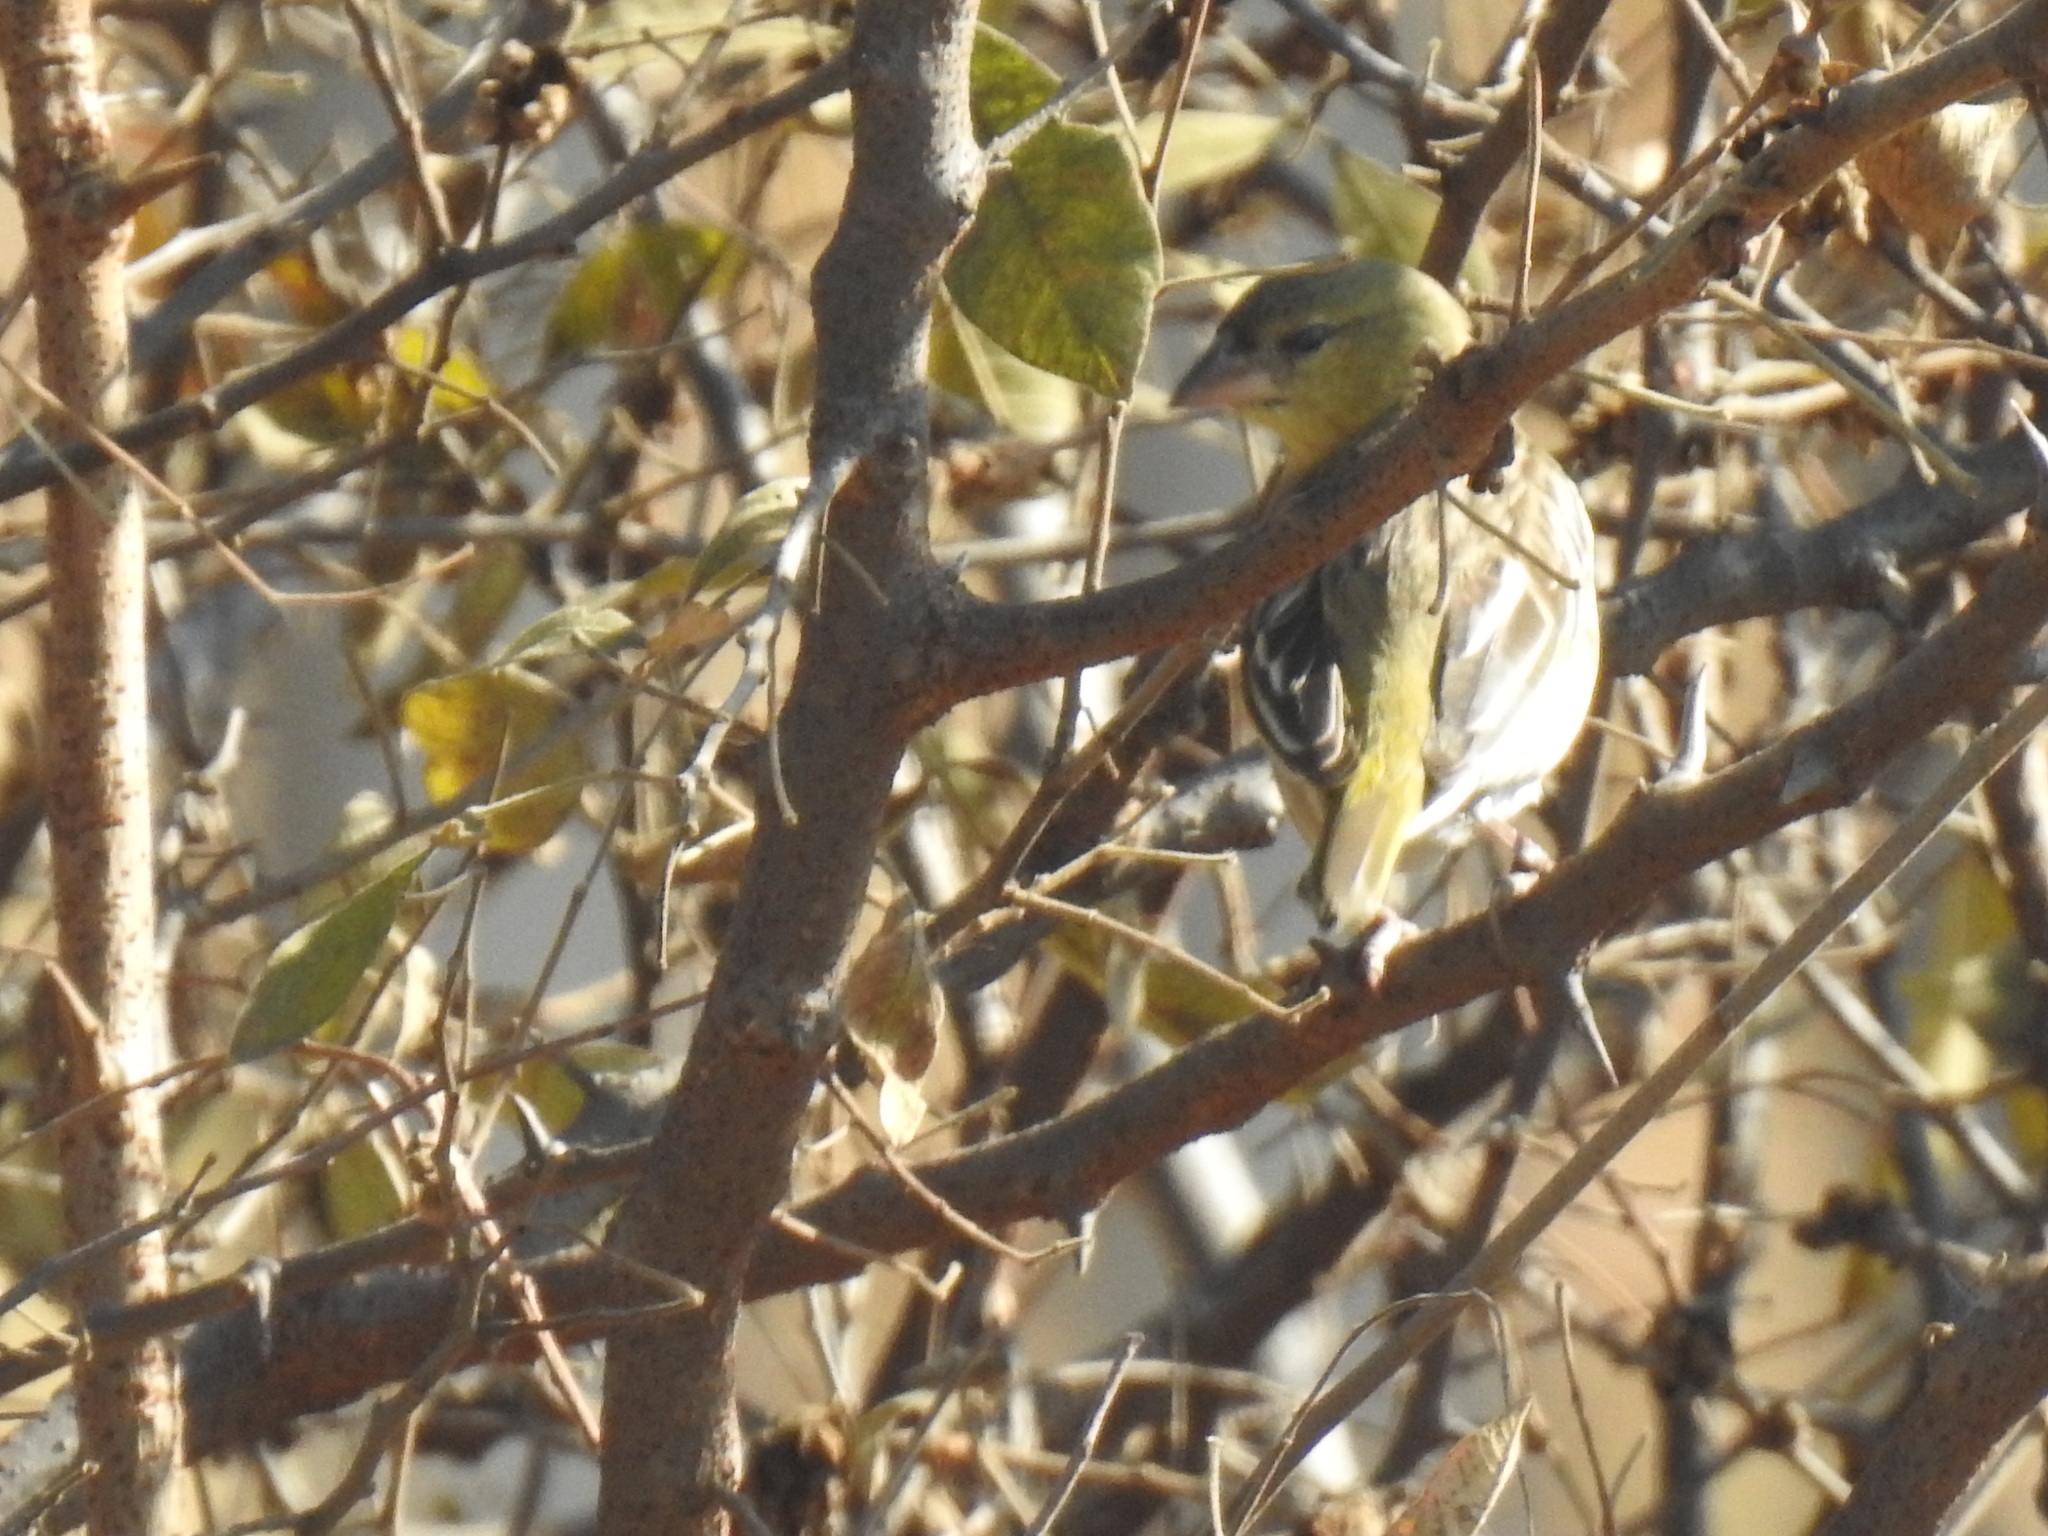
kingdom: Animalia
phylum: Chordata
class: Aves
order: Passeriformes
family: Ploceidae
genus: Ploceus
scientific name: Ploceus velatus
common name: Southern masked weaver
